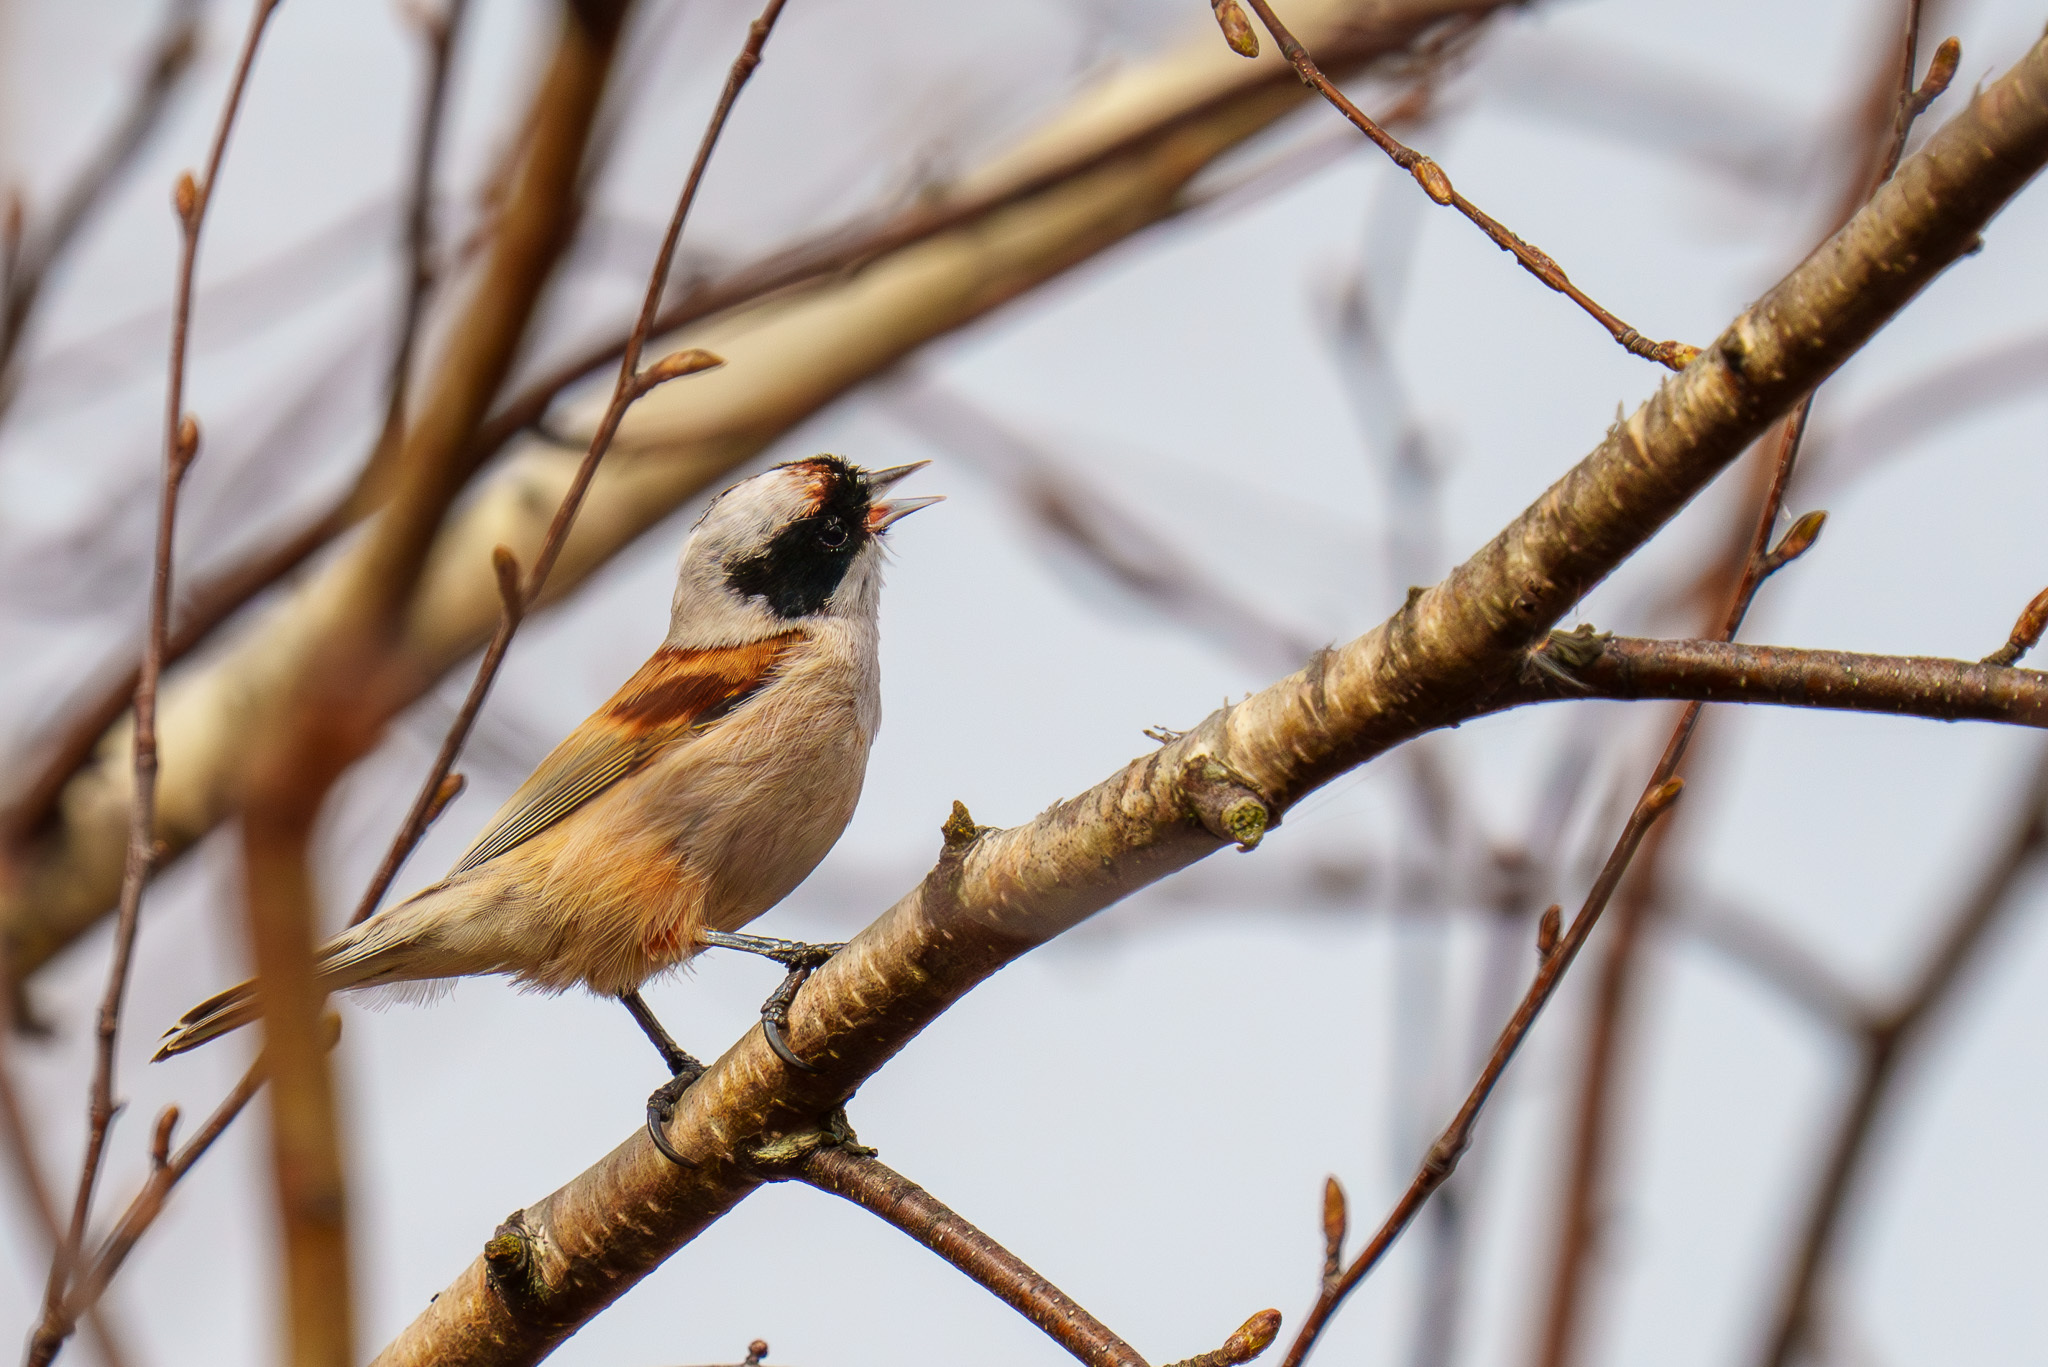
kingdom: Animalia
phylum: Chordata
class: Aves
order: Passeriformes
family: Remizidae
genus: Remiz
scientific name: Remiz pendulinus
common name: Eurasian penduline tit
